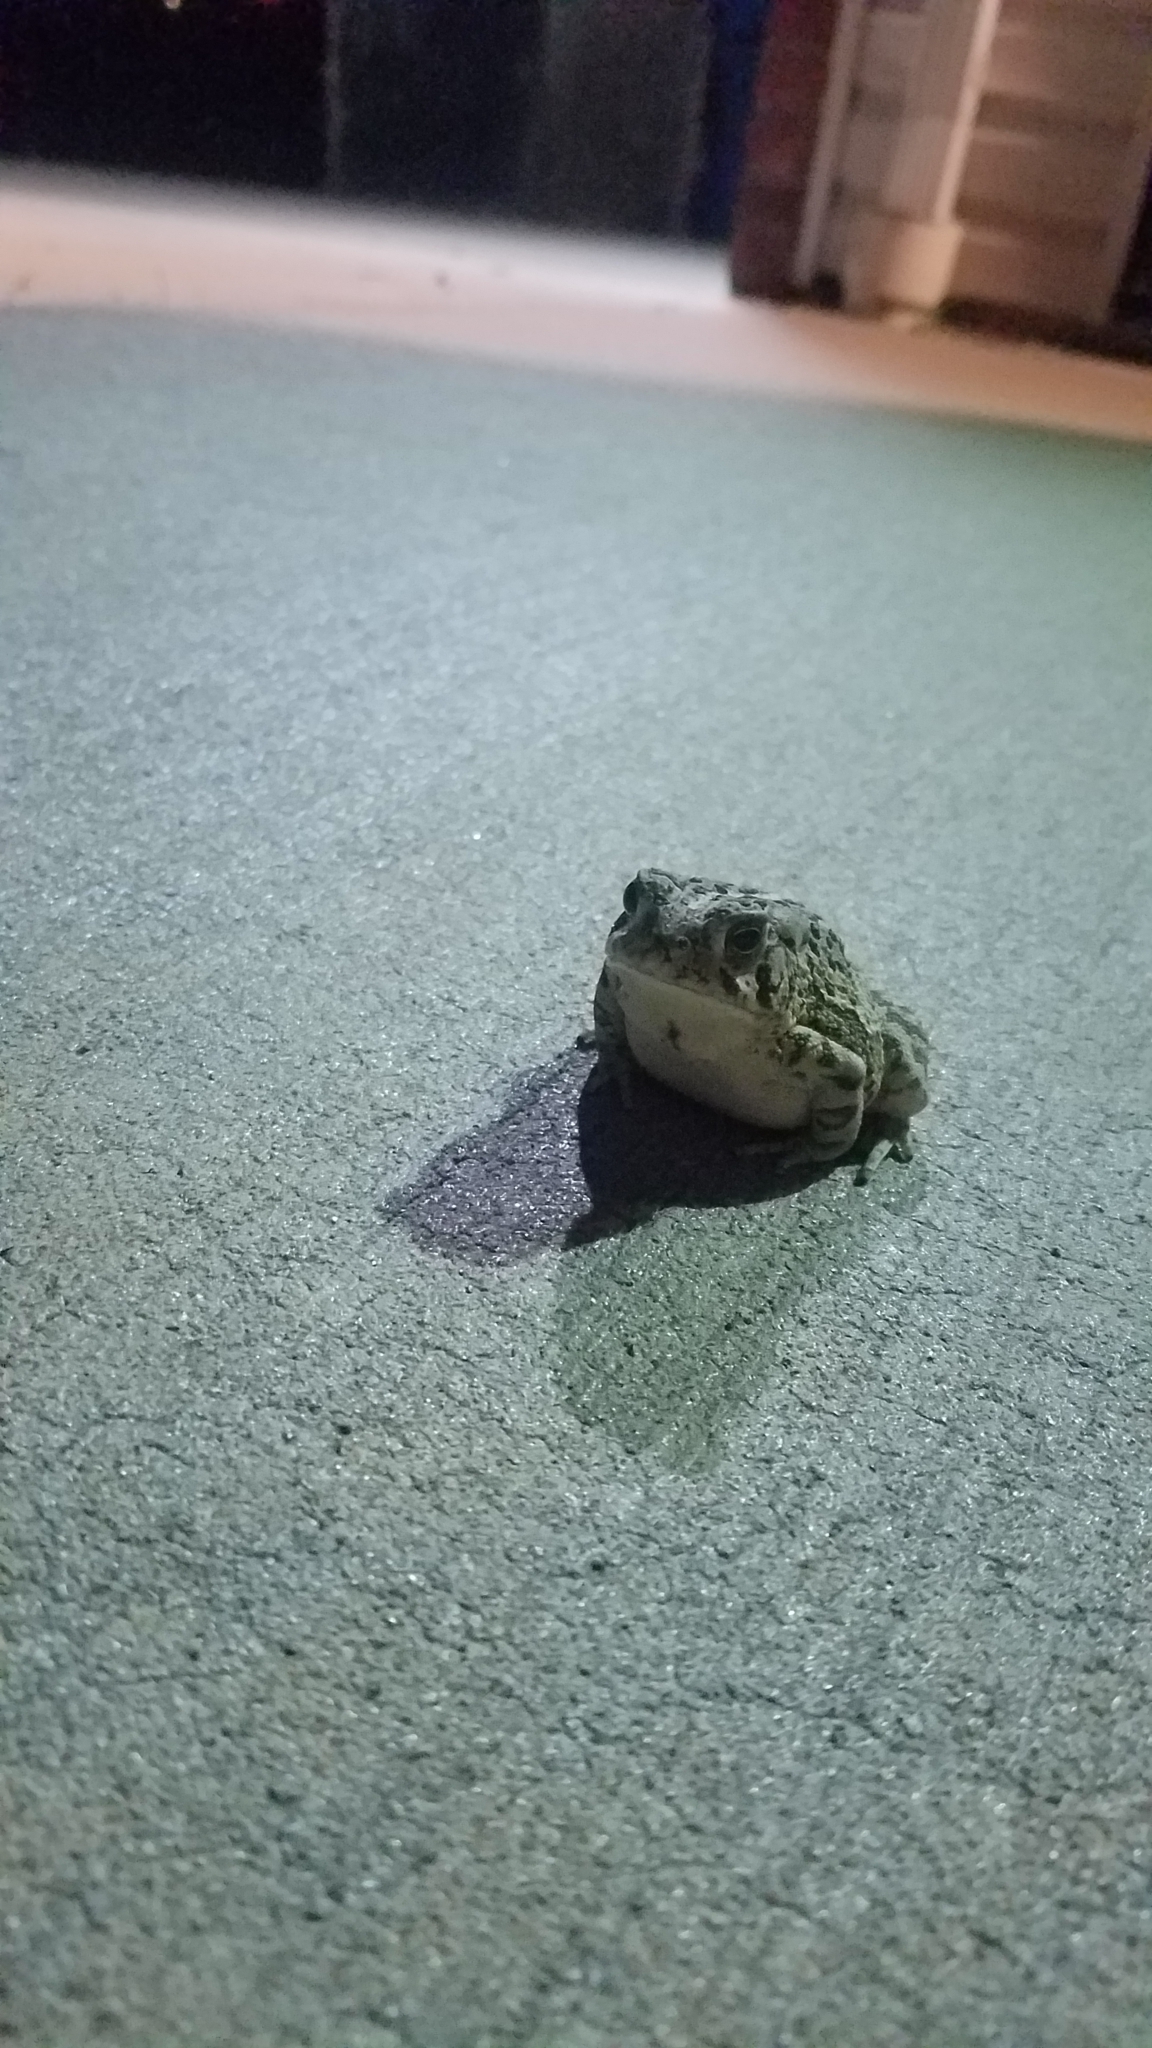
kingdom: Animalia
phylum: Chordata
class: Amphibia
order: Anura
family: Bufonidae
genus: Anaxyrus
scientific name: Anaxyrus fowleri
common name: Fowler's toad
